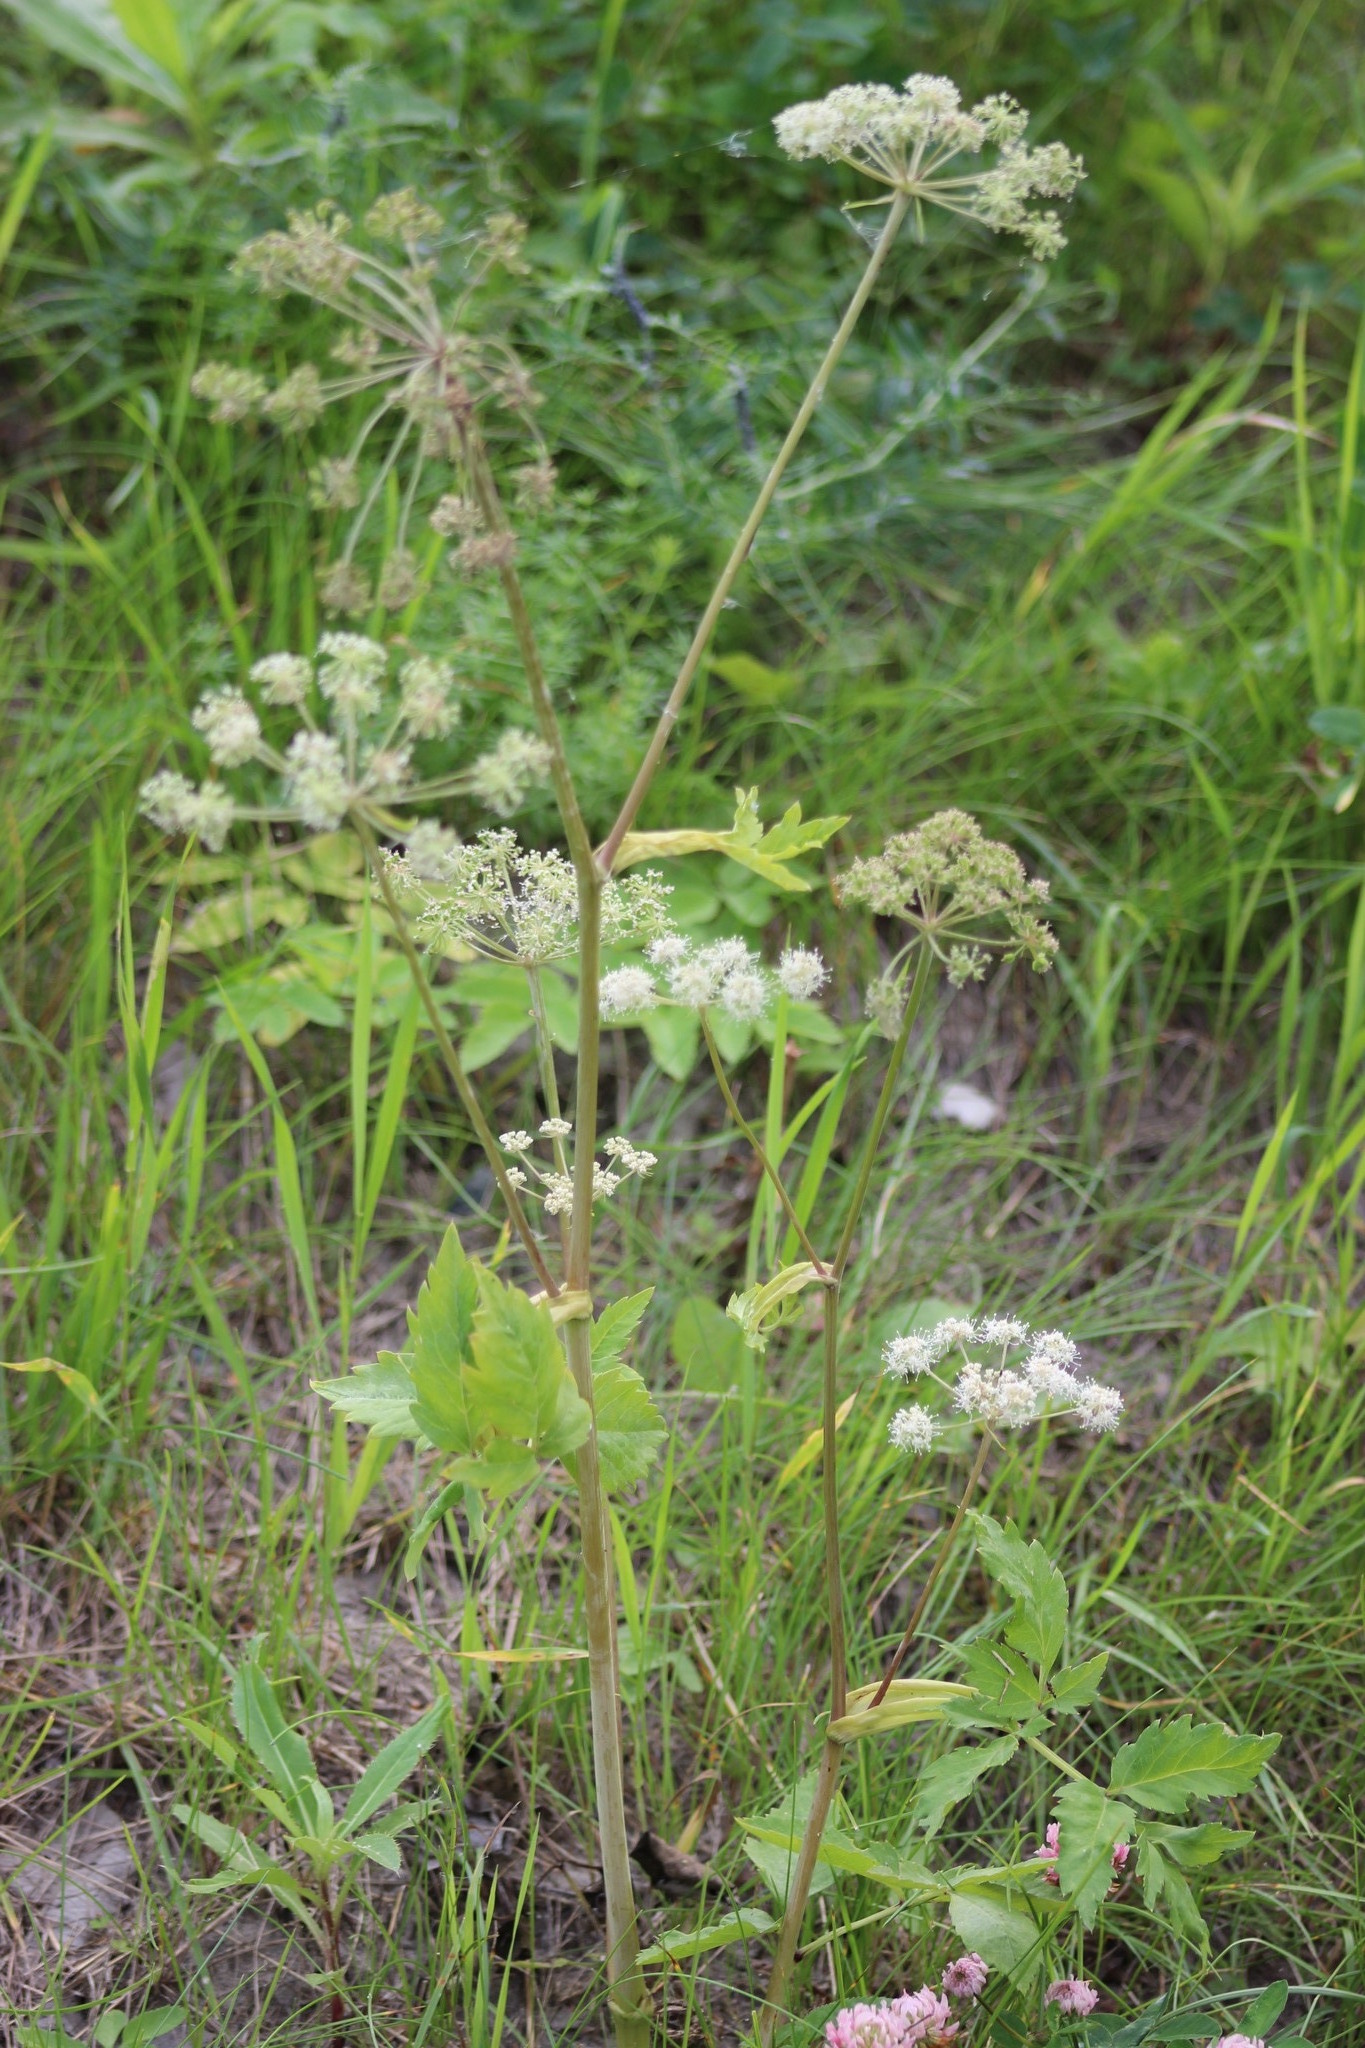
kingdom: Plantae
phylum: Tracheophyta
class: Magnoliopsida
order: Apiales
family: Apiaceae
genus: Angelica
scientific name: Angelica sylvestris
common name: Wild angelica
